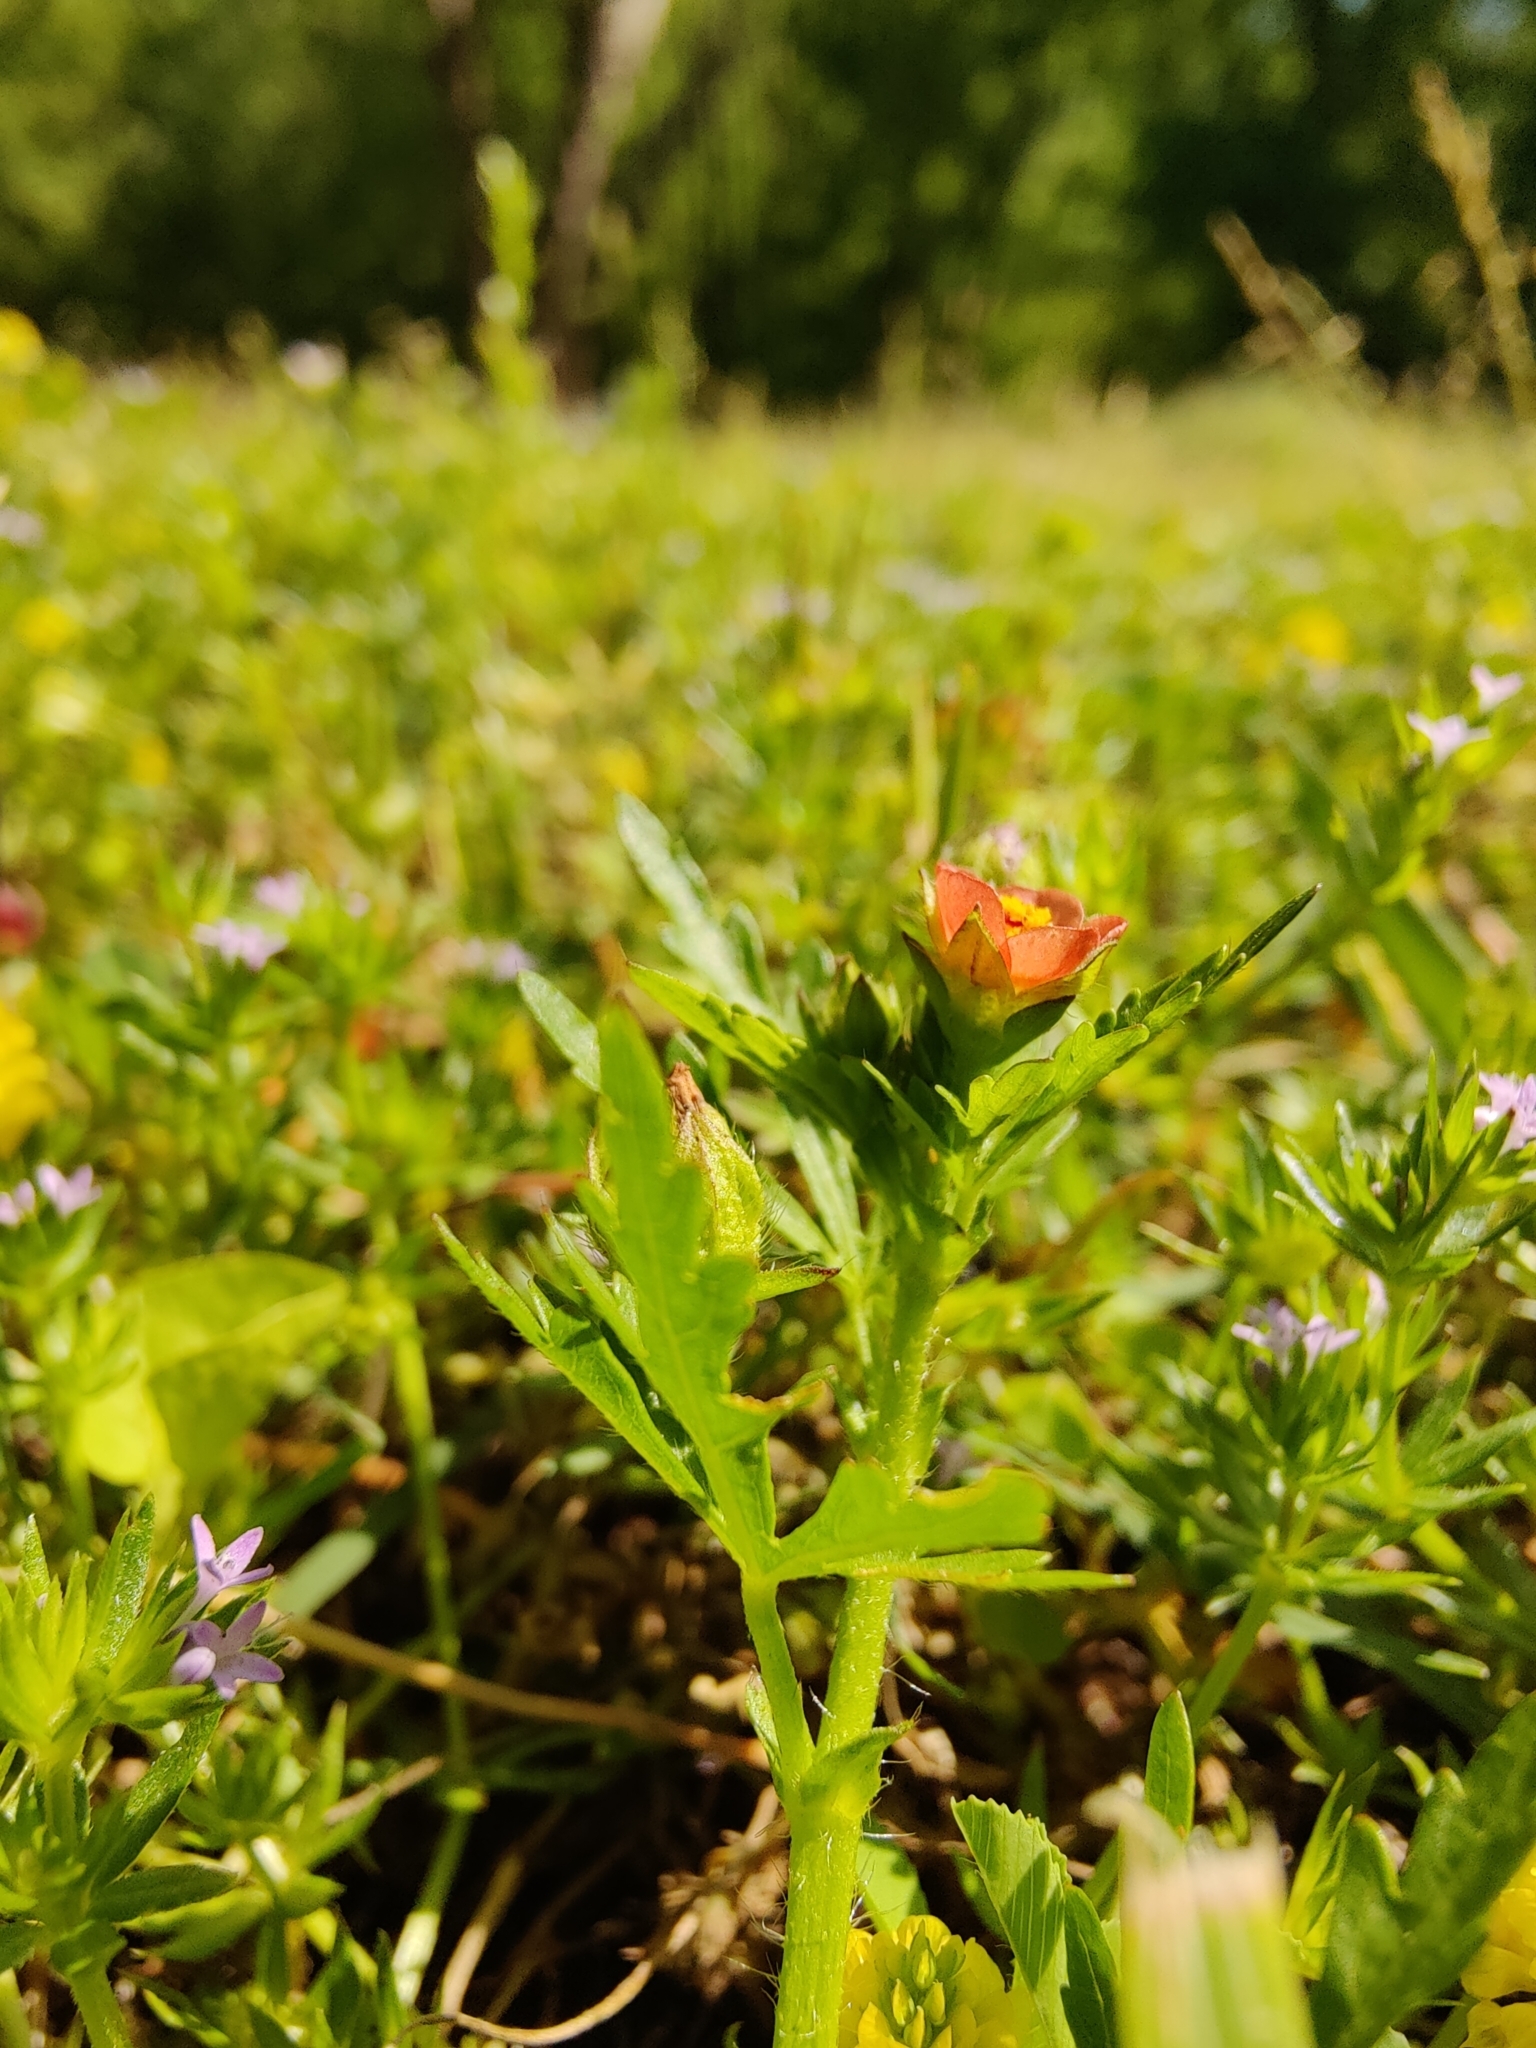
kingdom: Plantae
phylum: Tracheophyta
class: Magnoliopsida
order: Malvales
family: Malvaceae
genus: Modiola
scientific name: Modiola caroliniana
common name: Carolina bristlemallow
